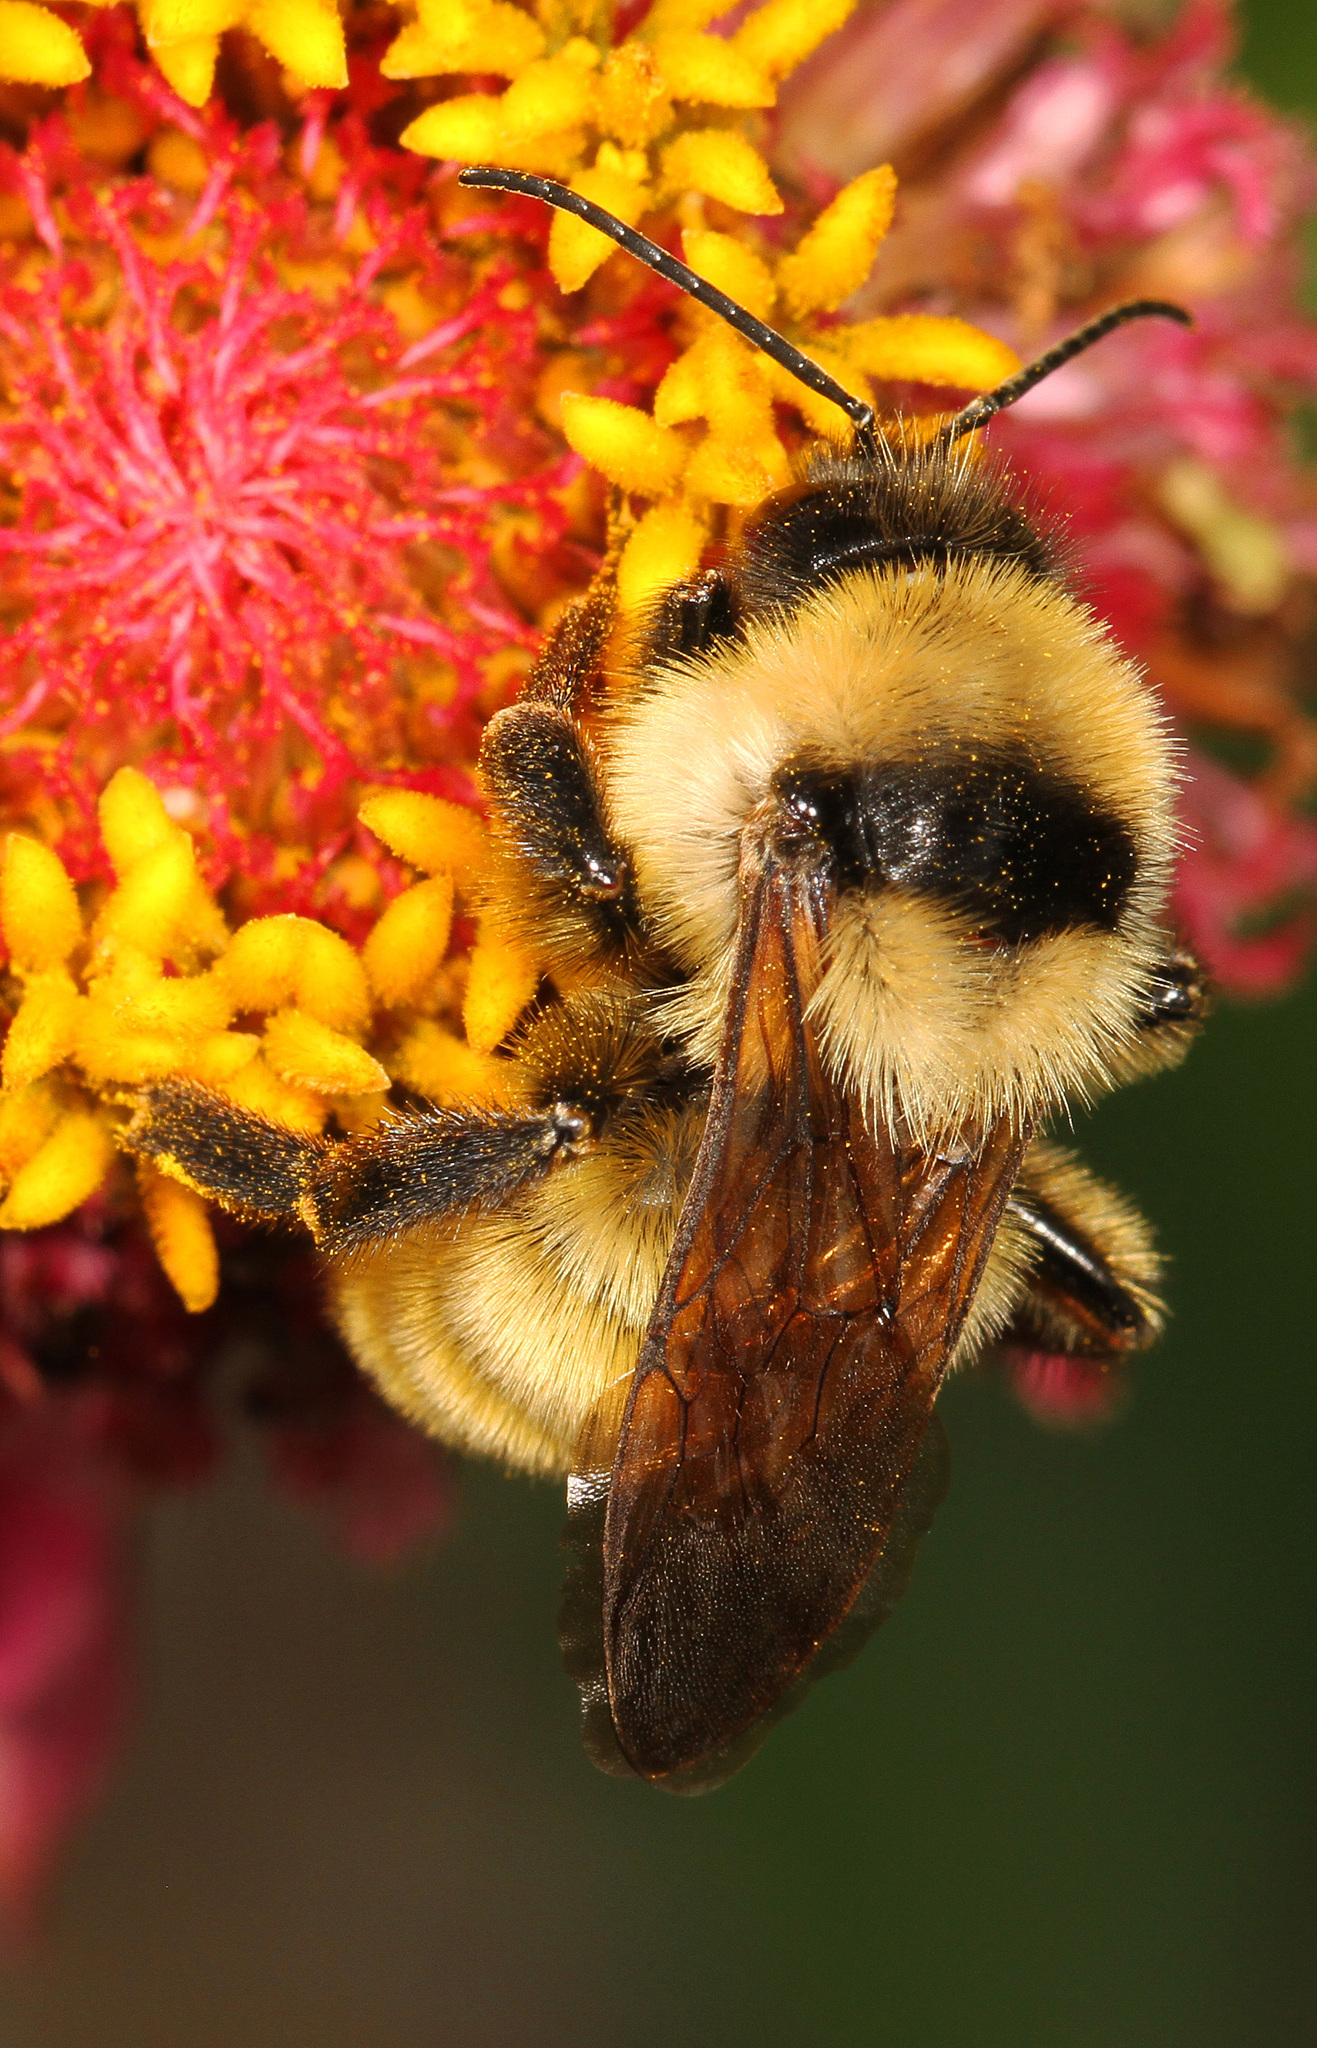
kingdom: Animalia
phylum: Arthropoda
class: Insecta
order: Hymenoptera
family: Apidae
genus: Bombus
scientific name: Bombus fervidus
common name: Yellow bumble bee
